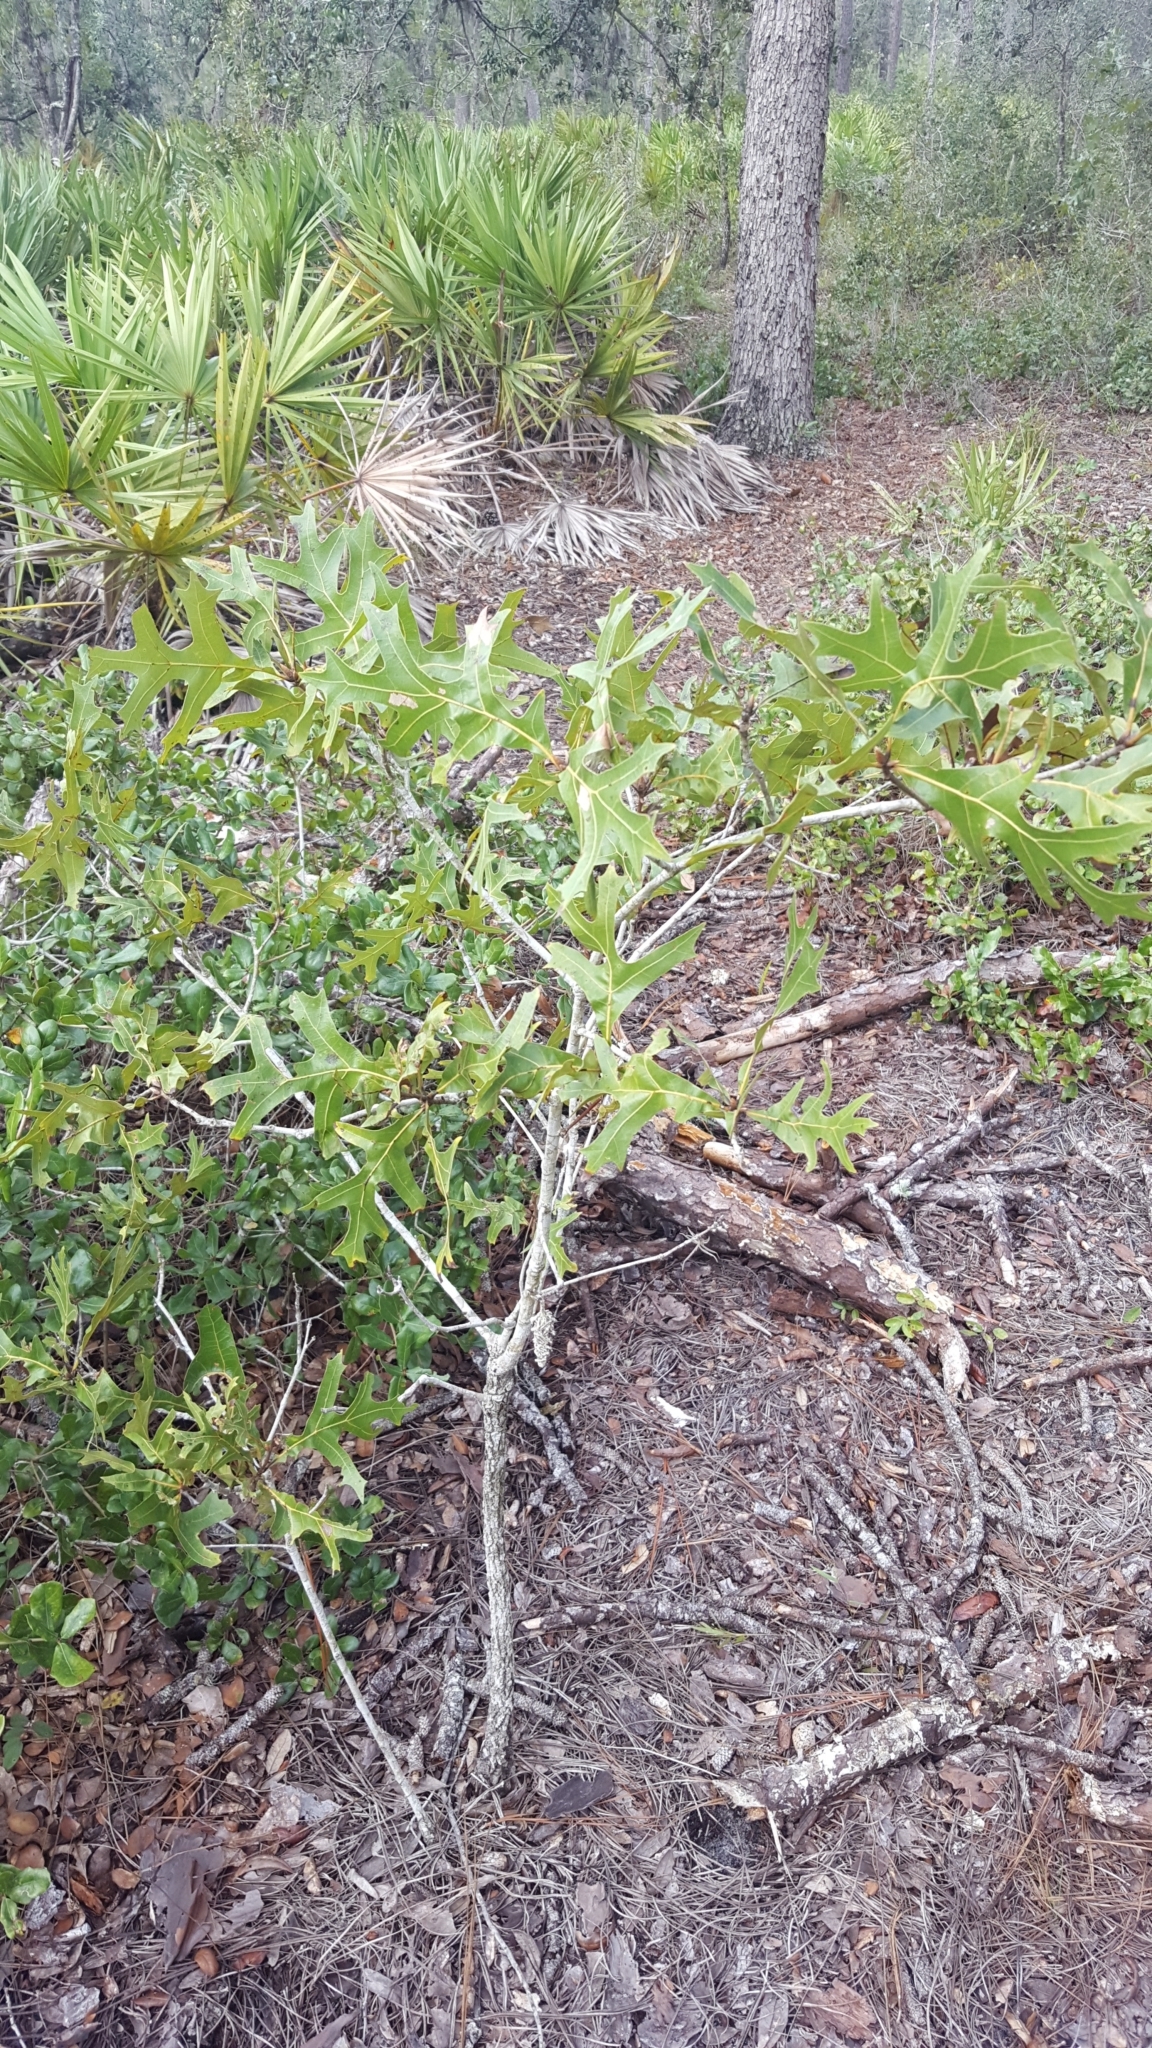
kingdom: Plantae
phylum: Tracheophyta
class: Magnoliopsida
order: Fagales
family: Fagaceae
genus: Quercus
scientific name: Quercus laevis
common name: Turkey oak
